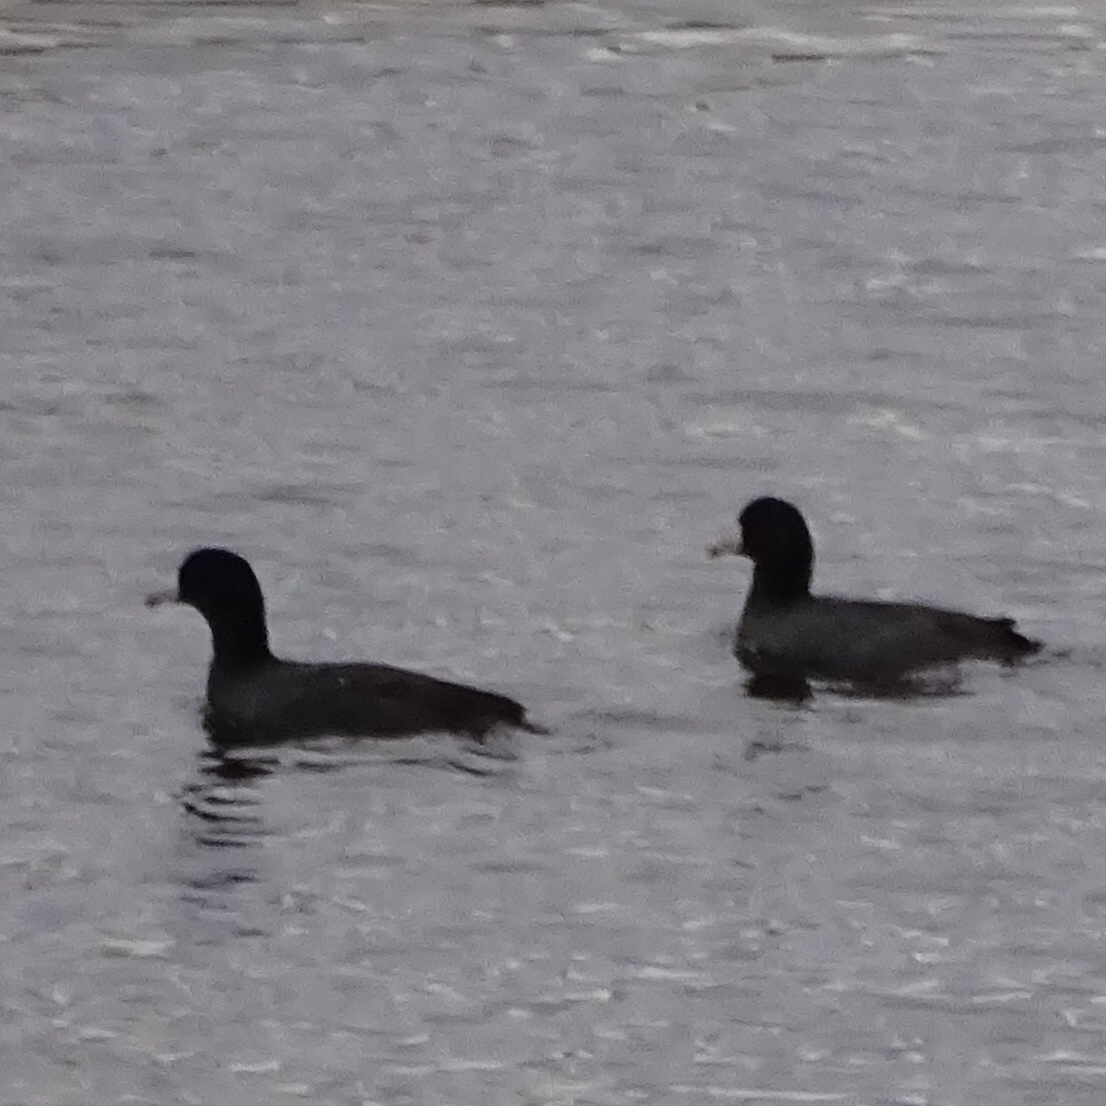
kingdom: Animalia
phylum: Chordata
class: Aves
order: Gruiformes
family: Rallidae
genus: Fulica
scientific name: Fulica americana
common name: American coot
